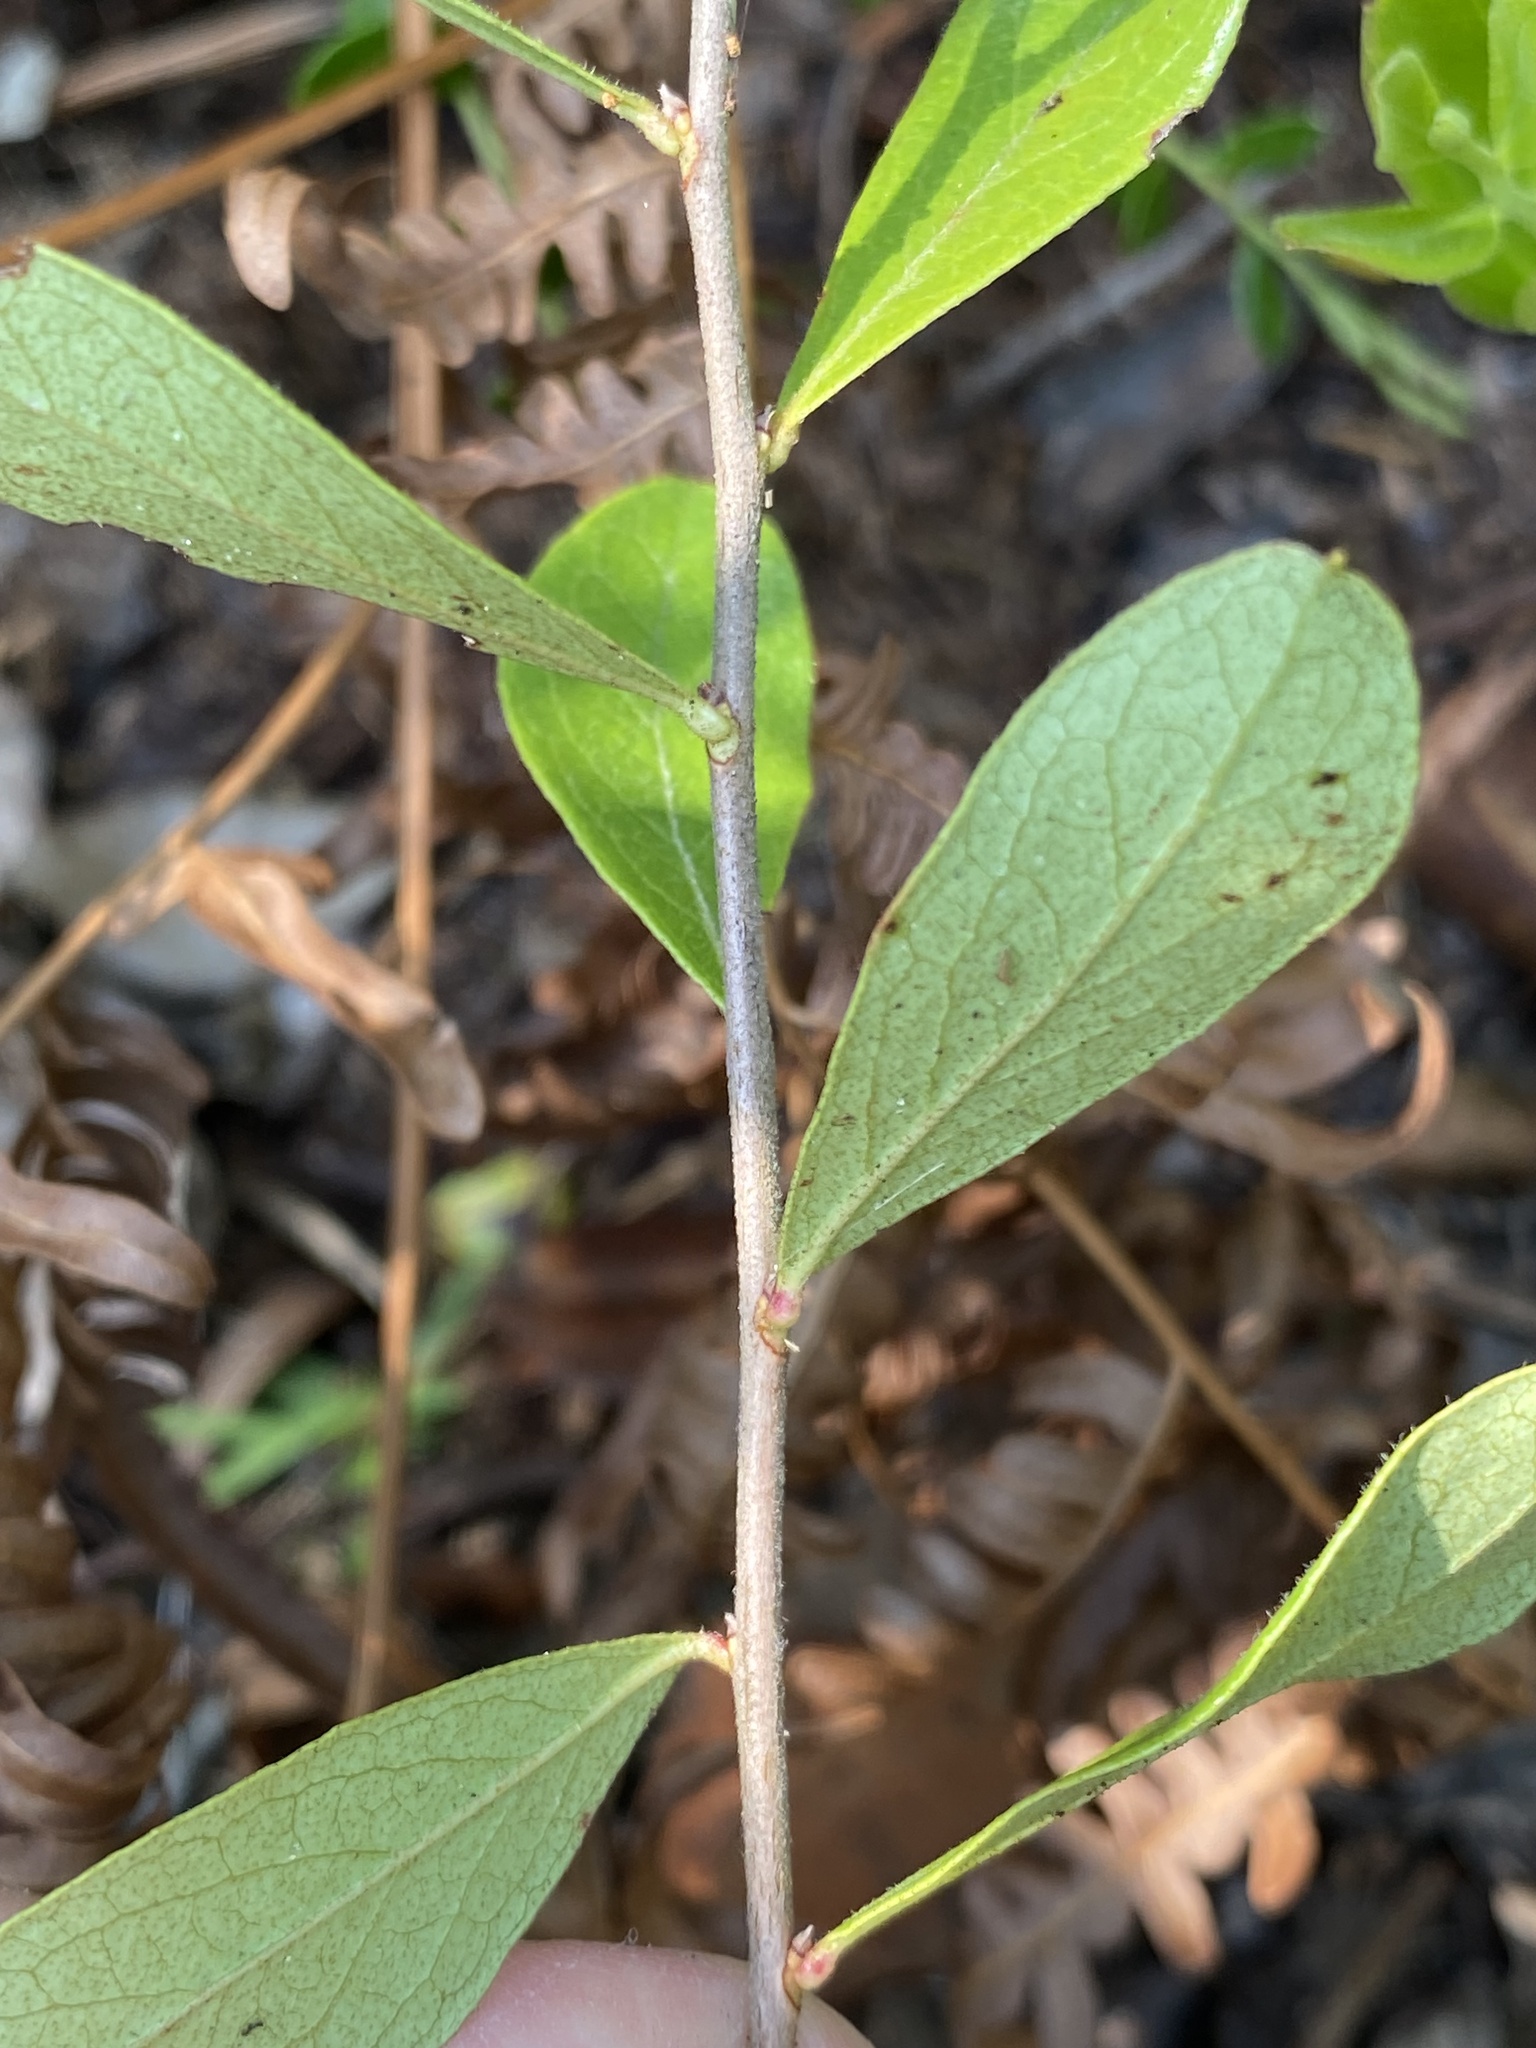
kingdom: Plantae
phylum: Tracheophyta
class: Magnoliopsida
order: Ericales
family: Ericaceae
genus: Gaylussacia
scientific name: Gaylussacia dumosa
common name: Dwarf huckleberry
